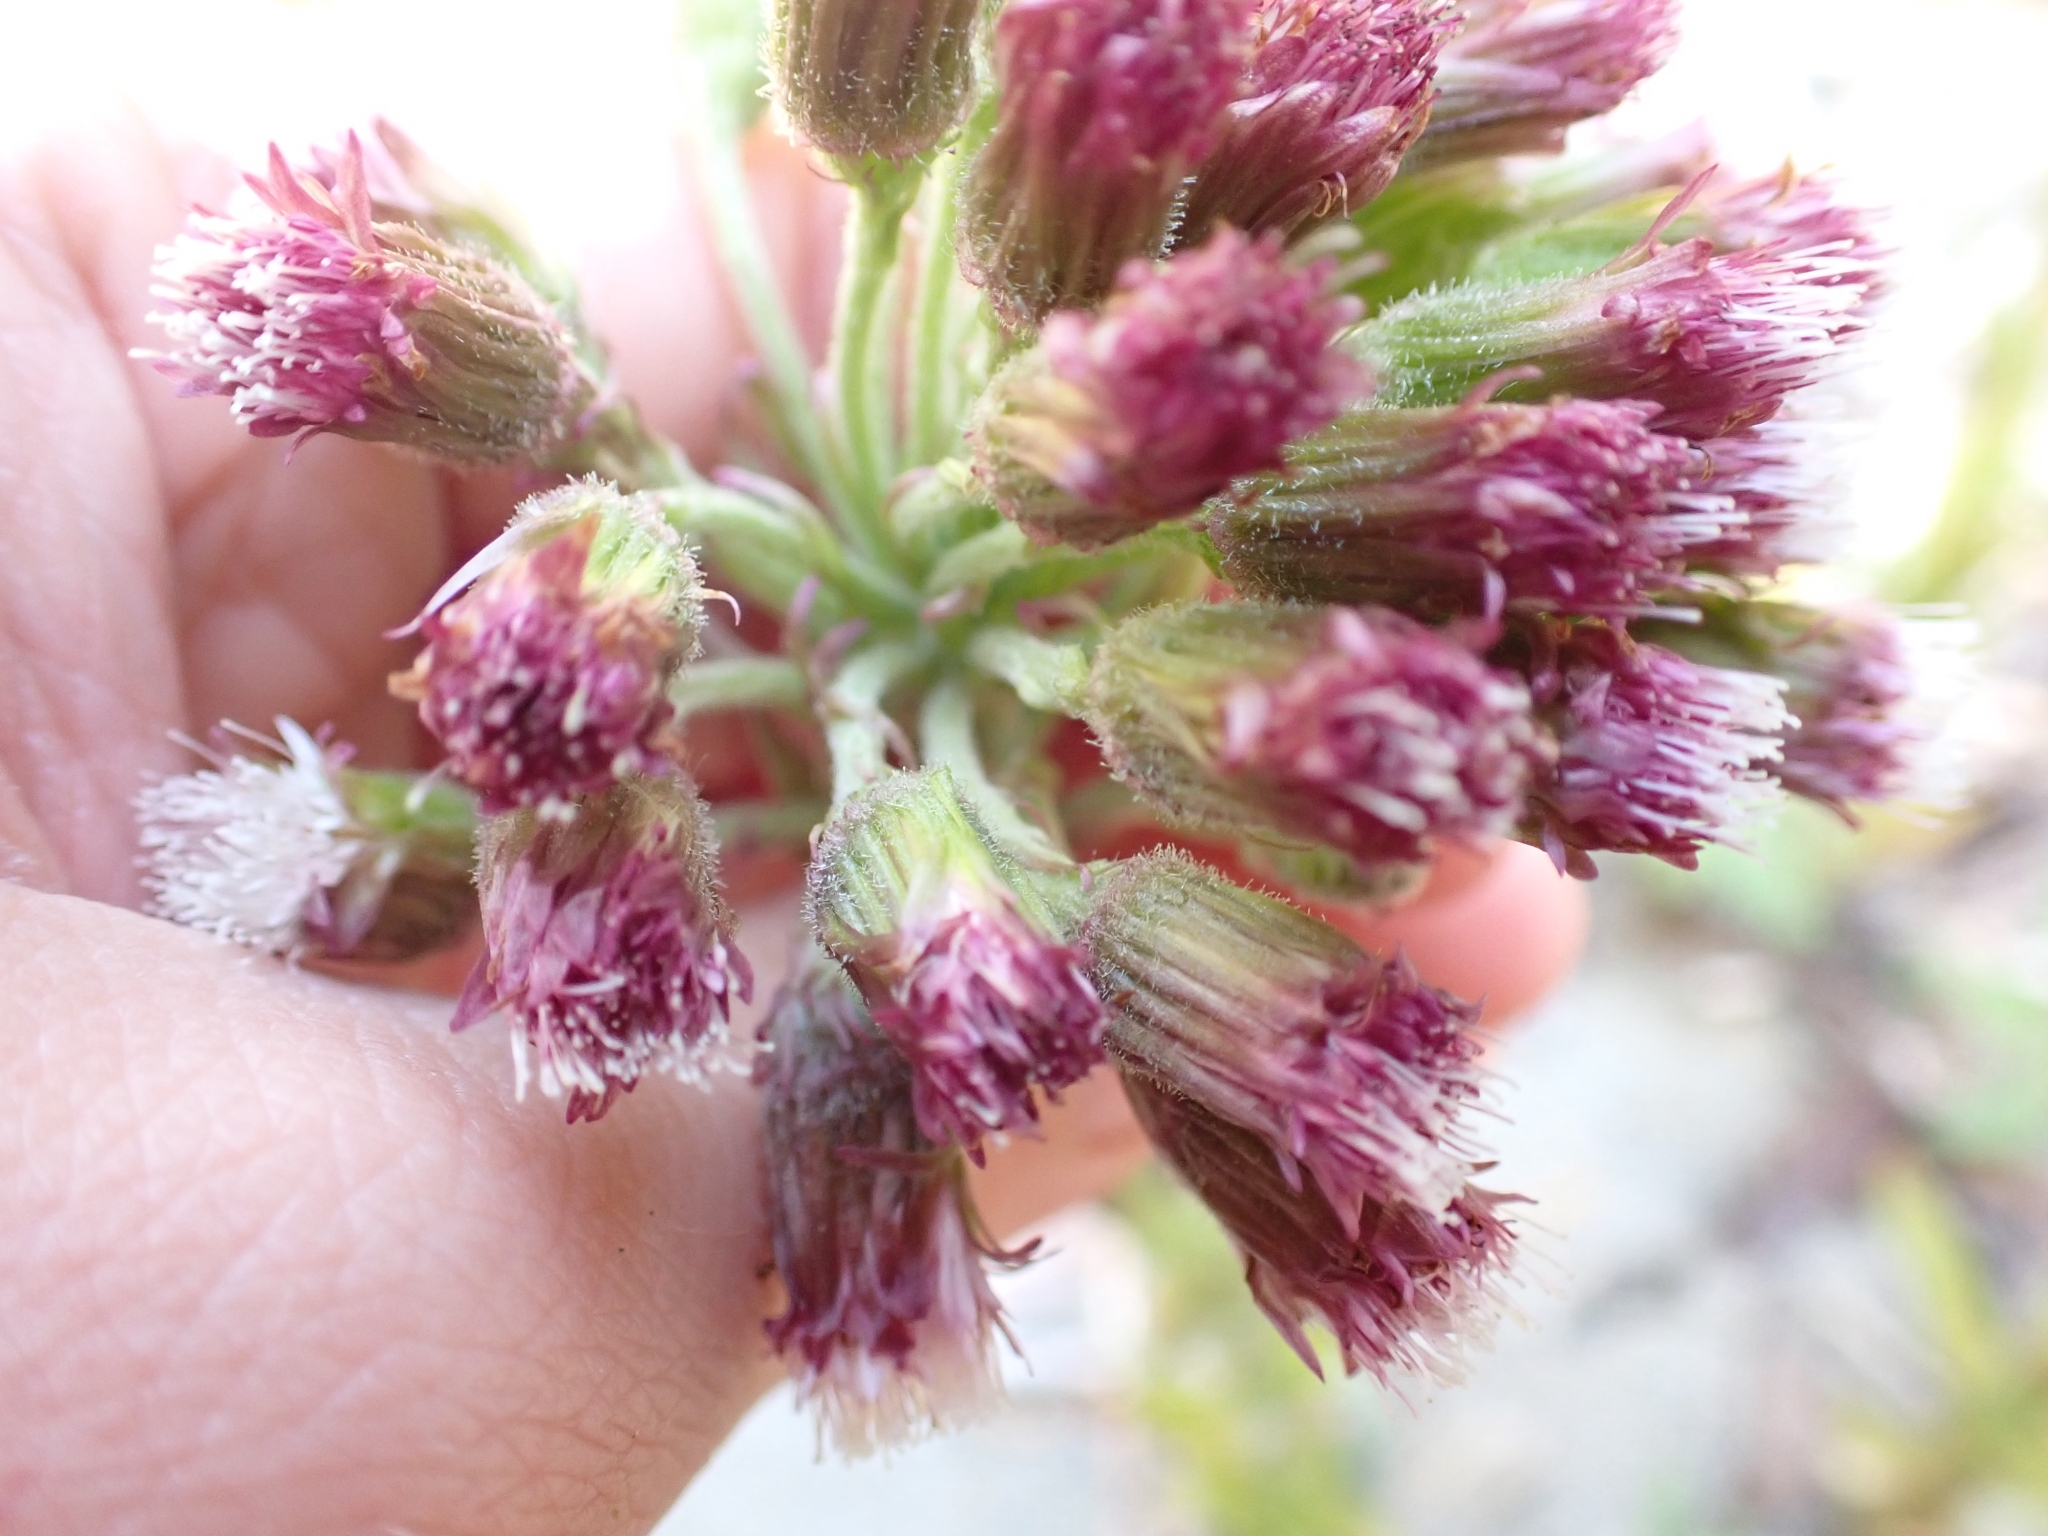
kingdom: Plantae
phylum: Tracheophyta
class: Magnoliopsida
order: Asterales
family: Asteraceae
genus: Petasites
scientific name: Petasites frigidus
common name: Arctic butterbur
